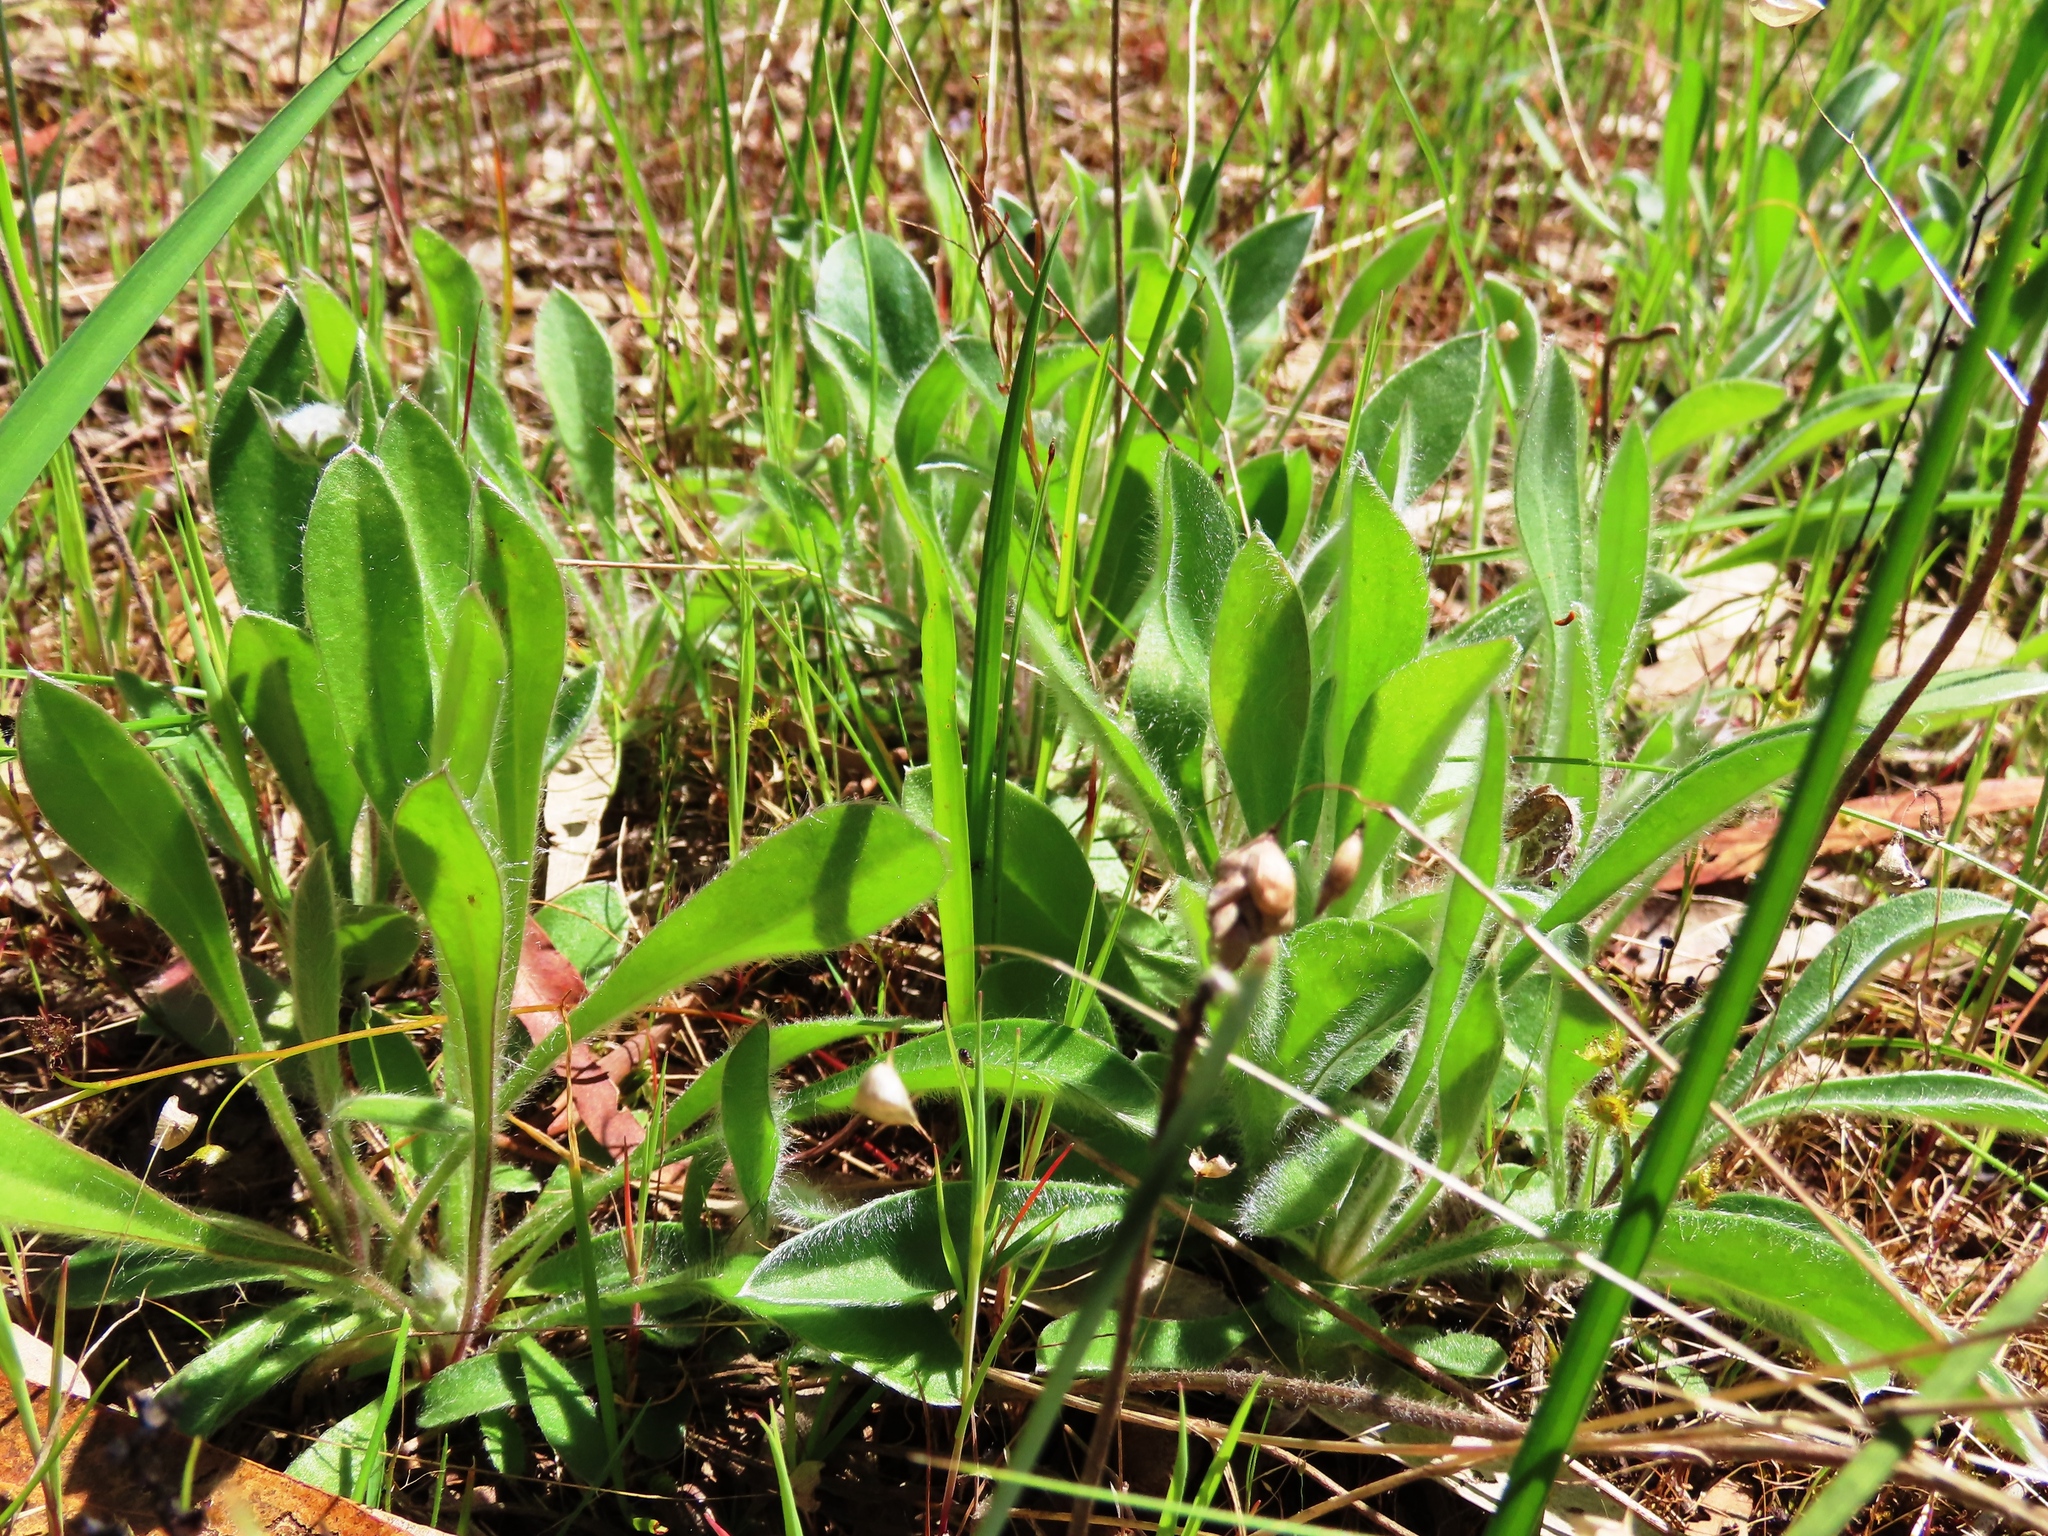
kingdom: Plantae
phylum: Tracheophyta
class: Magnoliopsida
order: Asterales
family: Goodeniaceae
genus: Brunonia
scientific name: Brunonia australis
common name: Blue pincushion
